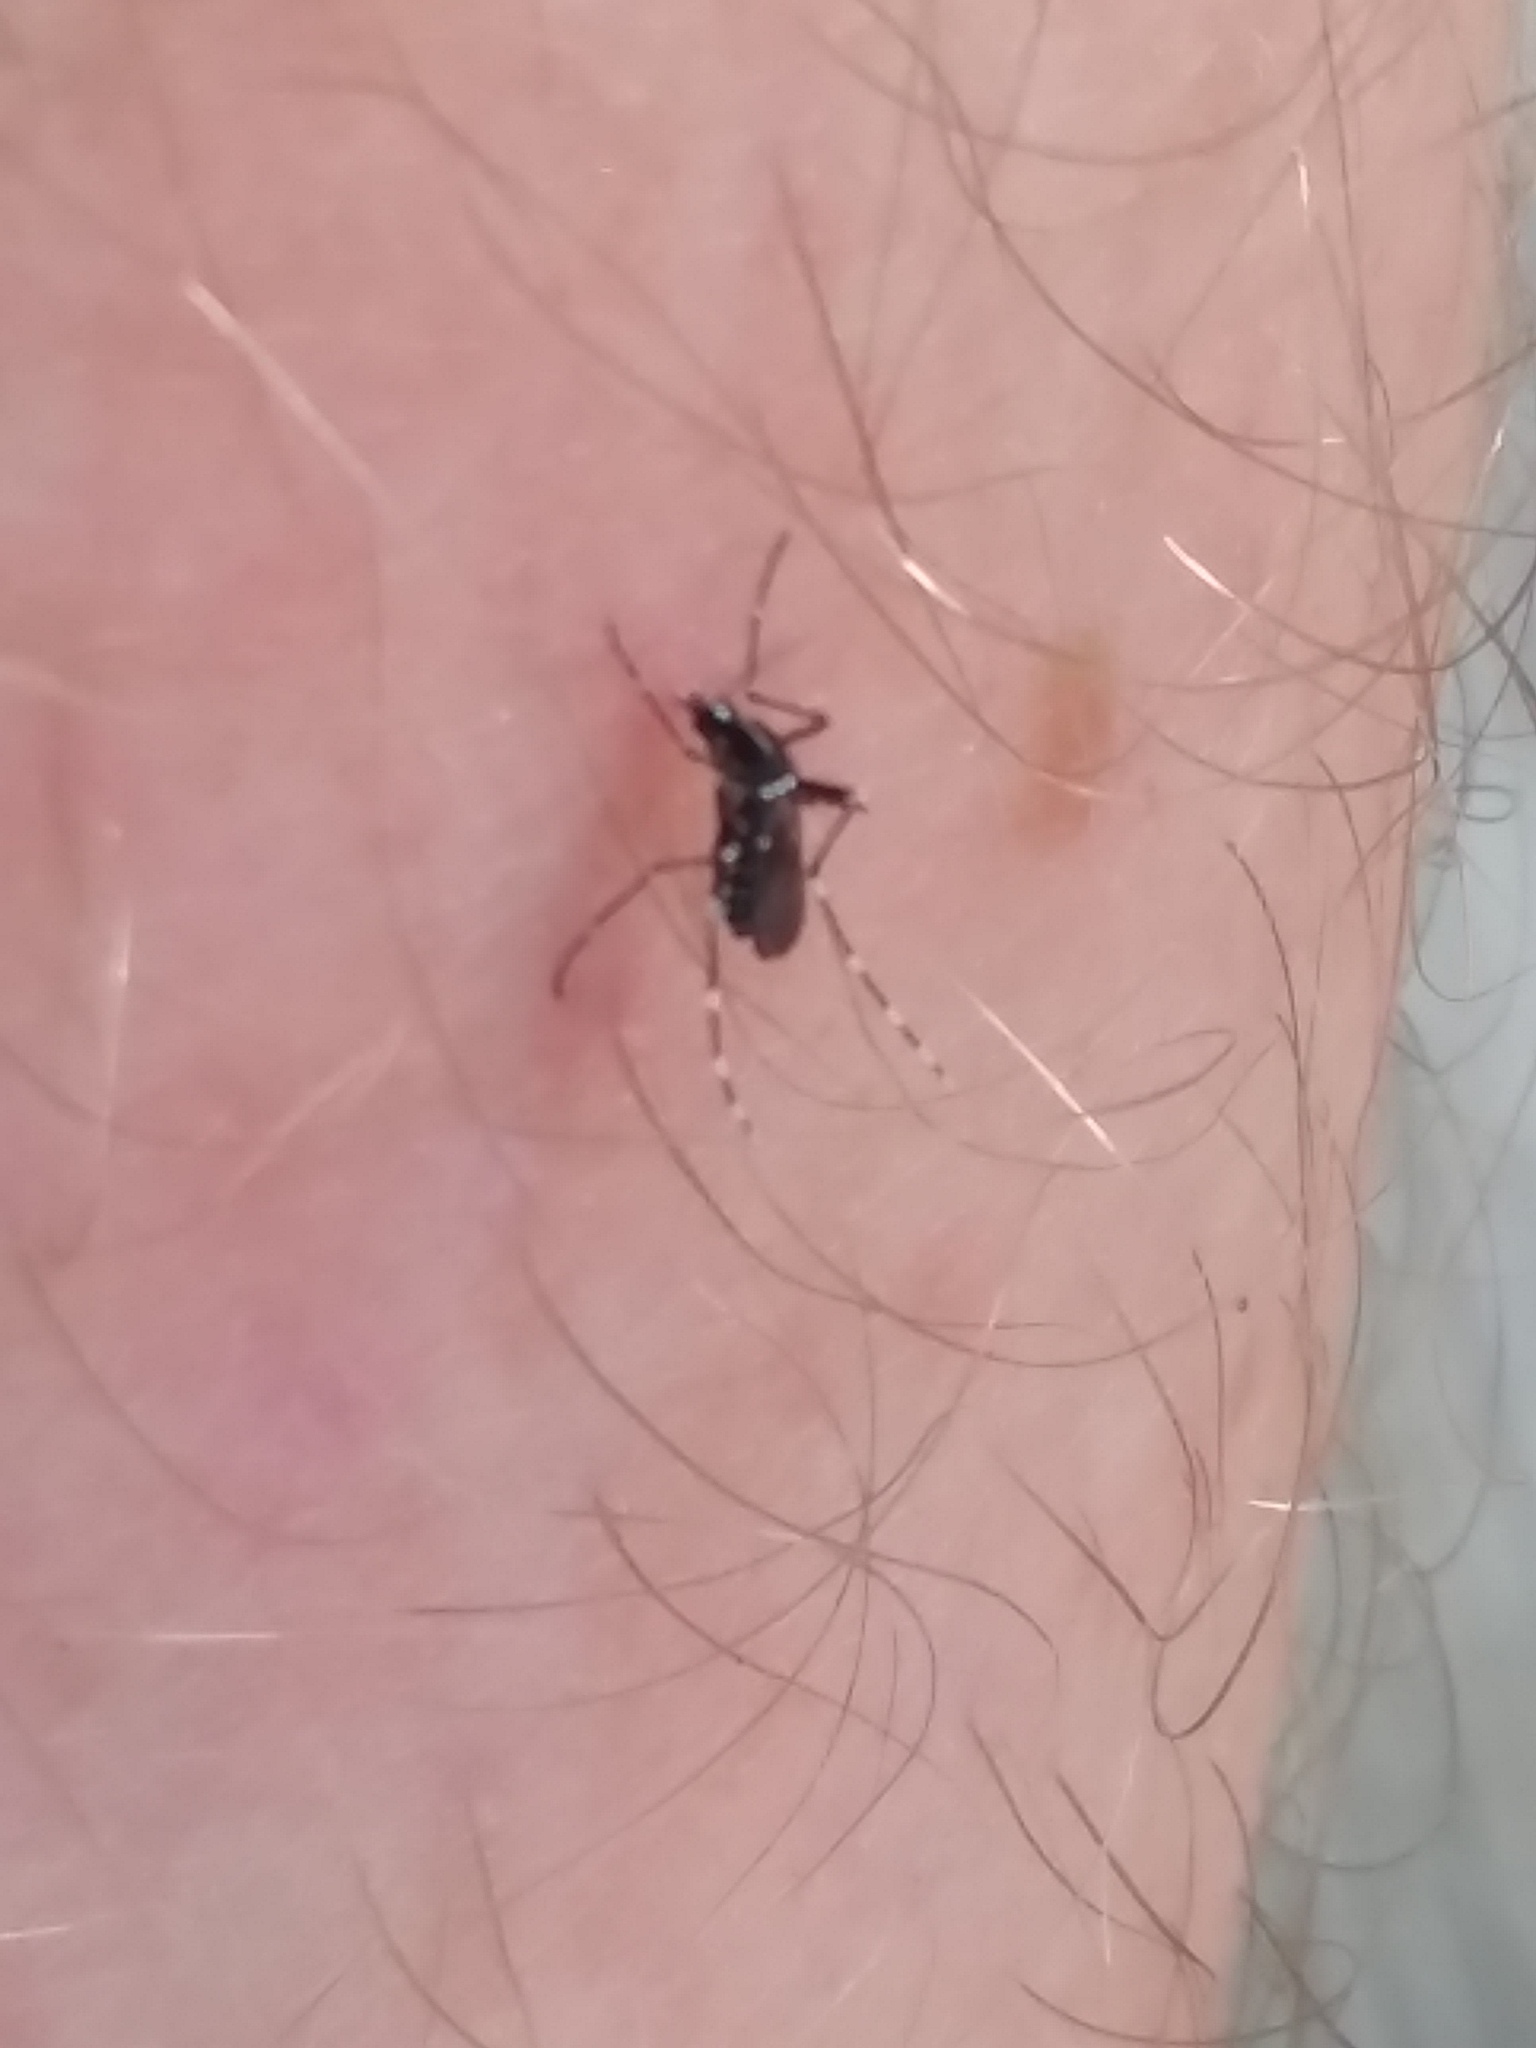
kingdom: Animalia
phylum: Arthropoda
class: Insecta
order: Diptera
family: Culicidae
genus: Aedes
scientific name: Aedes albopictus
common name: Tiger mosquito
